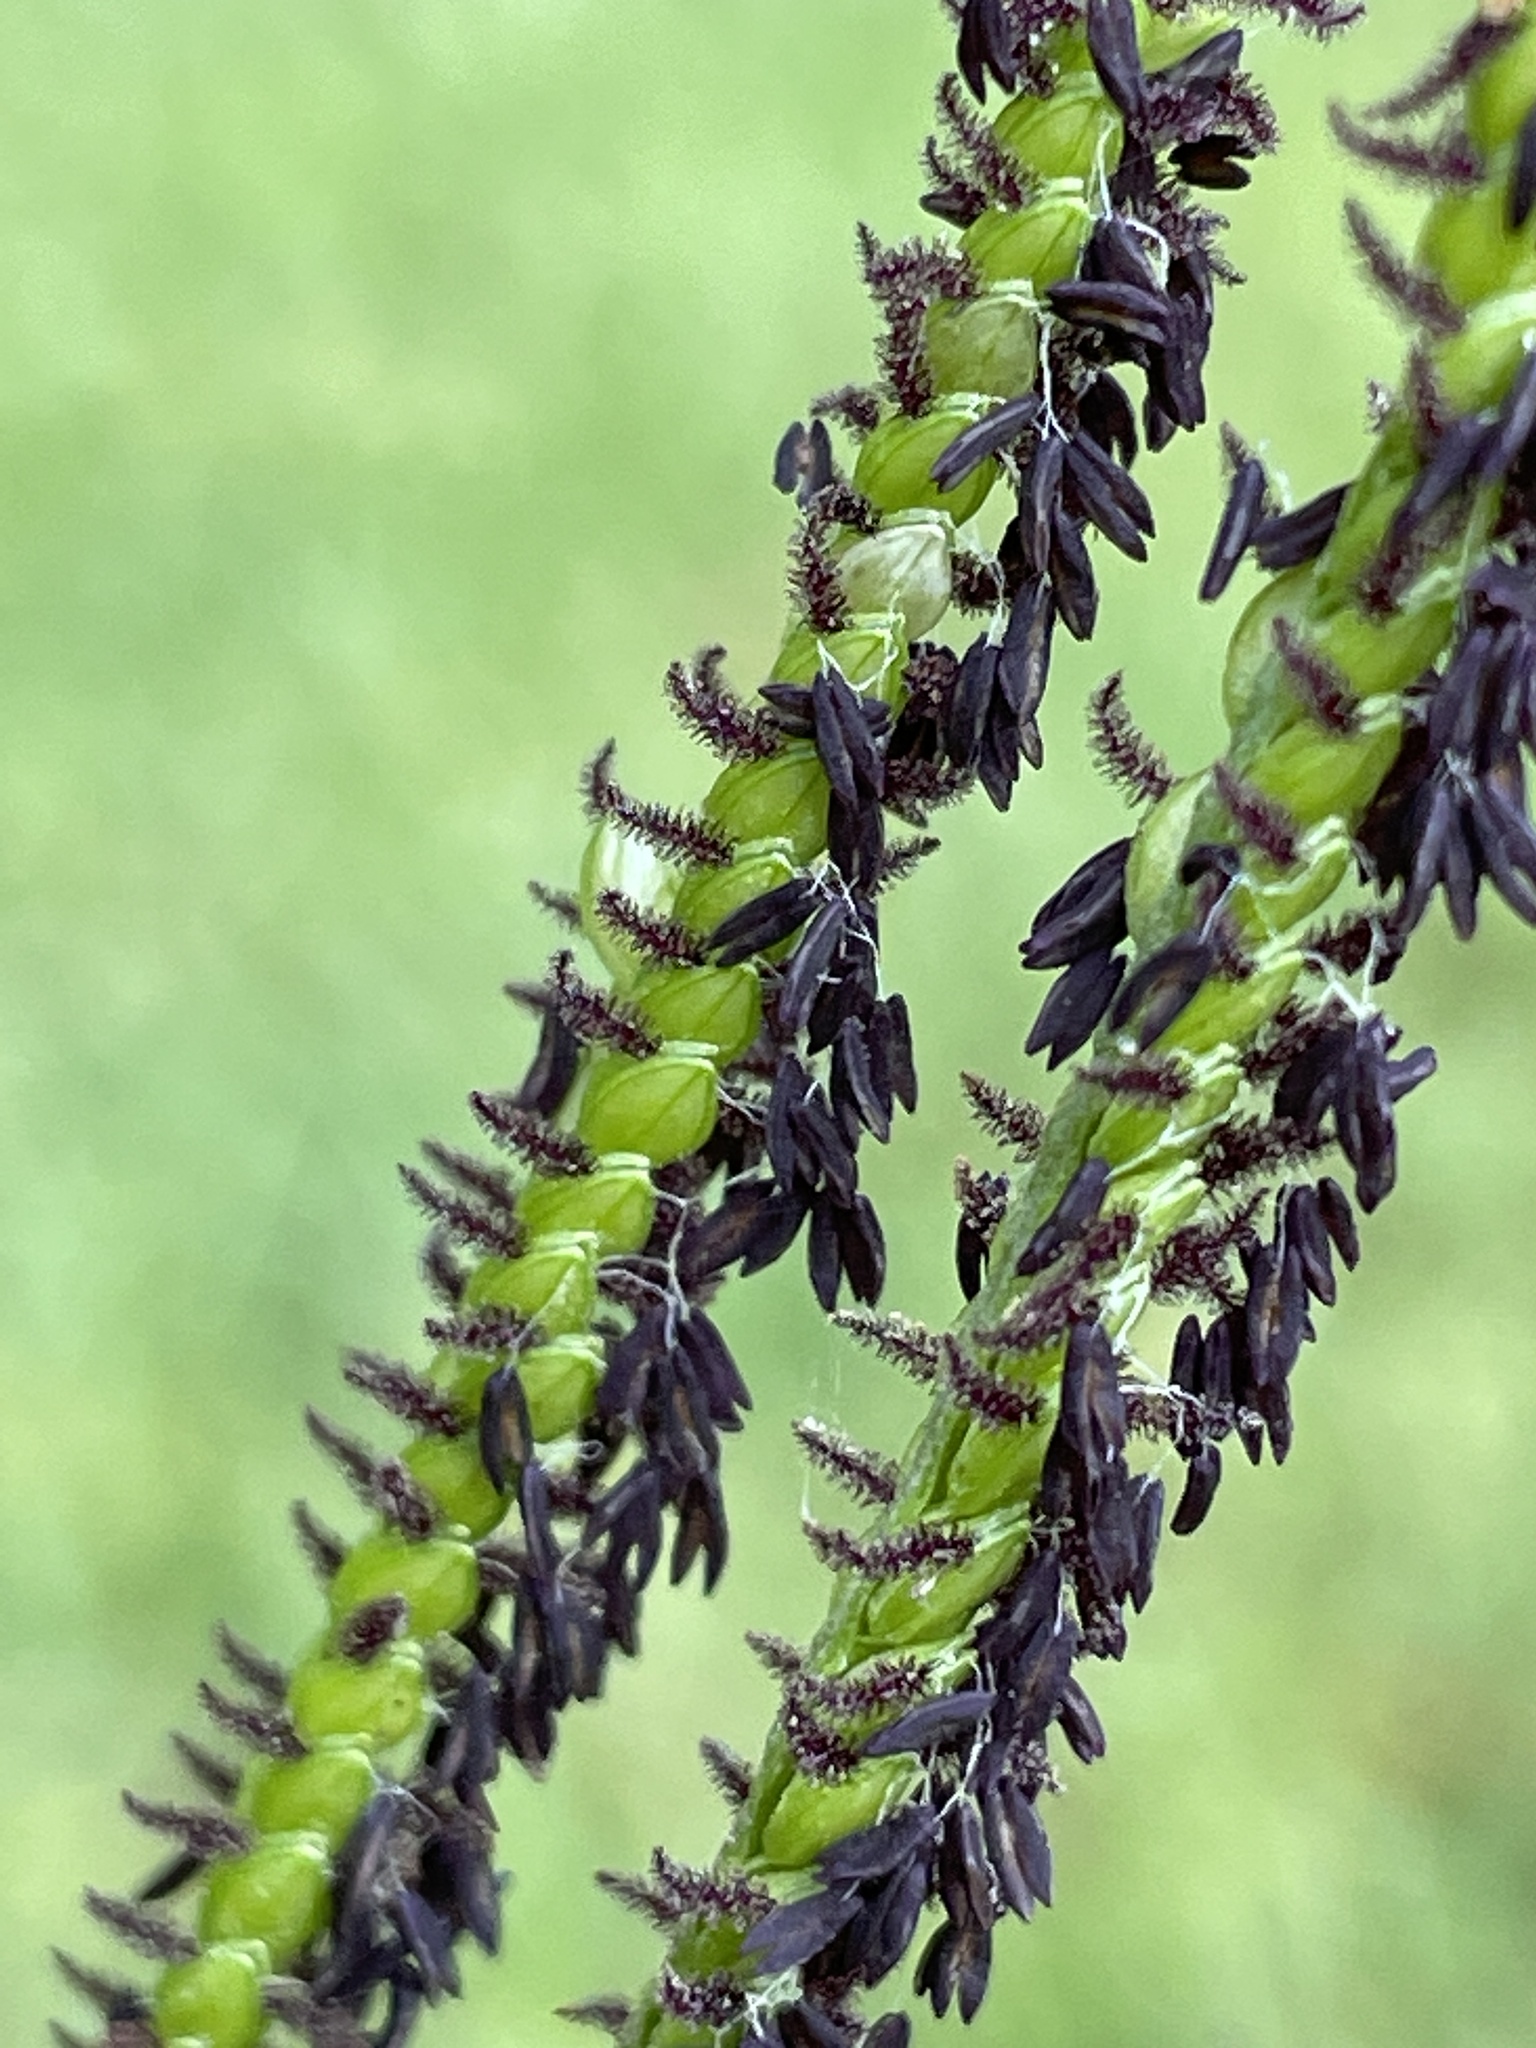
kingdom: Plantae
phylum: Tracheophyta
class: Liliopsida
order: Poales
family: Poaceae
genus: Paspalum
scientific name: Paspalum notatum
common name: Bahiagrass
